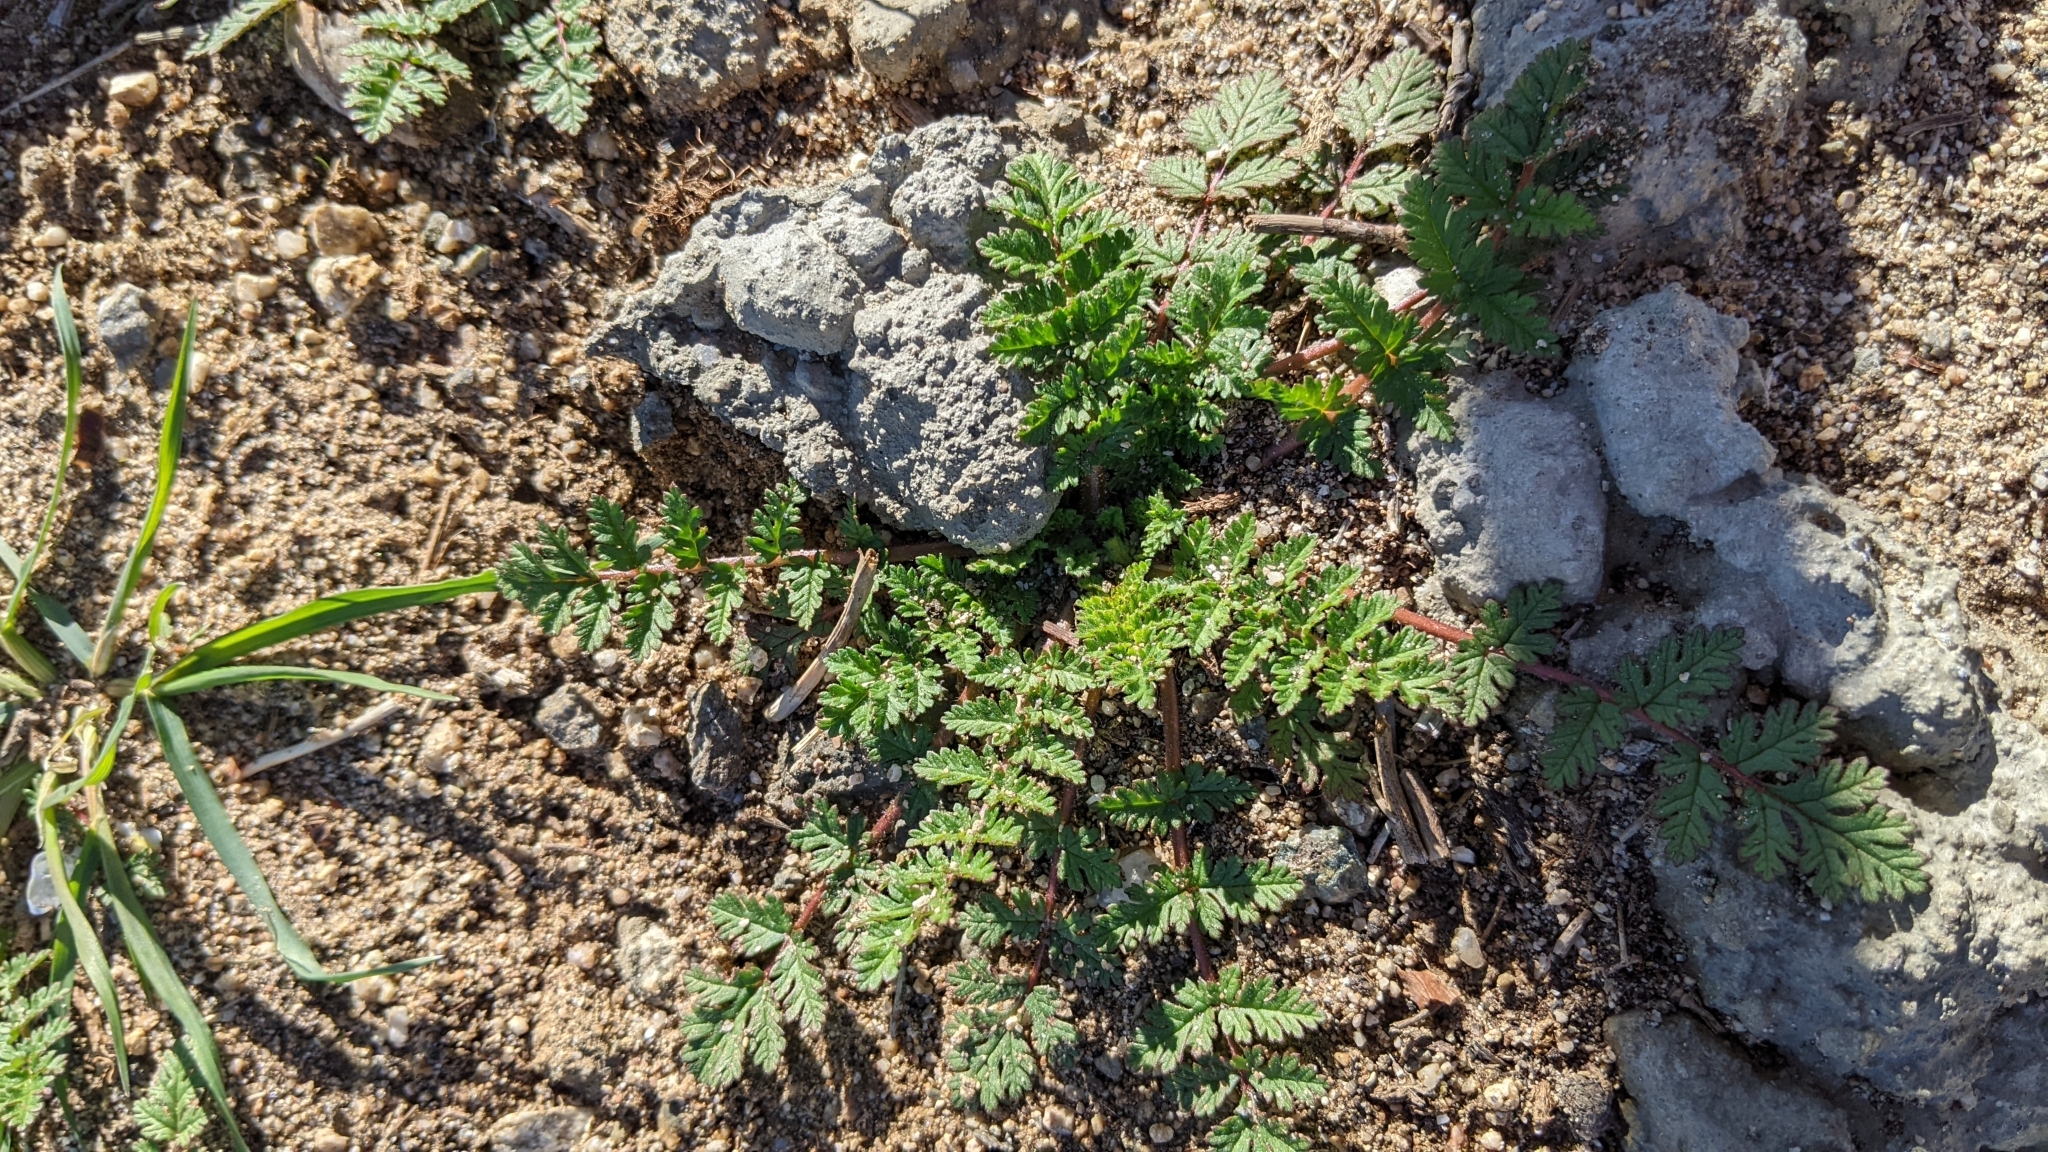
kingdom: Plantae
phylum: Tracheophyta
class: Magnoliopsida
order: Geraniales
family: Geraniaceae
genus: Erodium
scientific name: Erodium cicutarium
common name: Common stork's-bill
